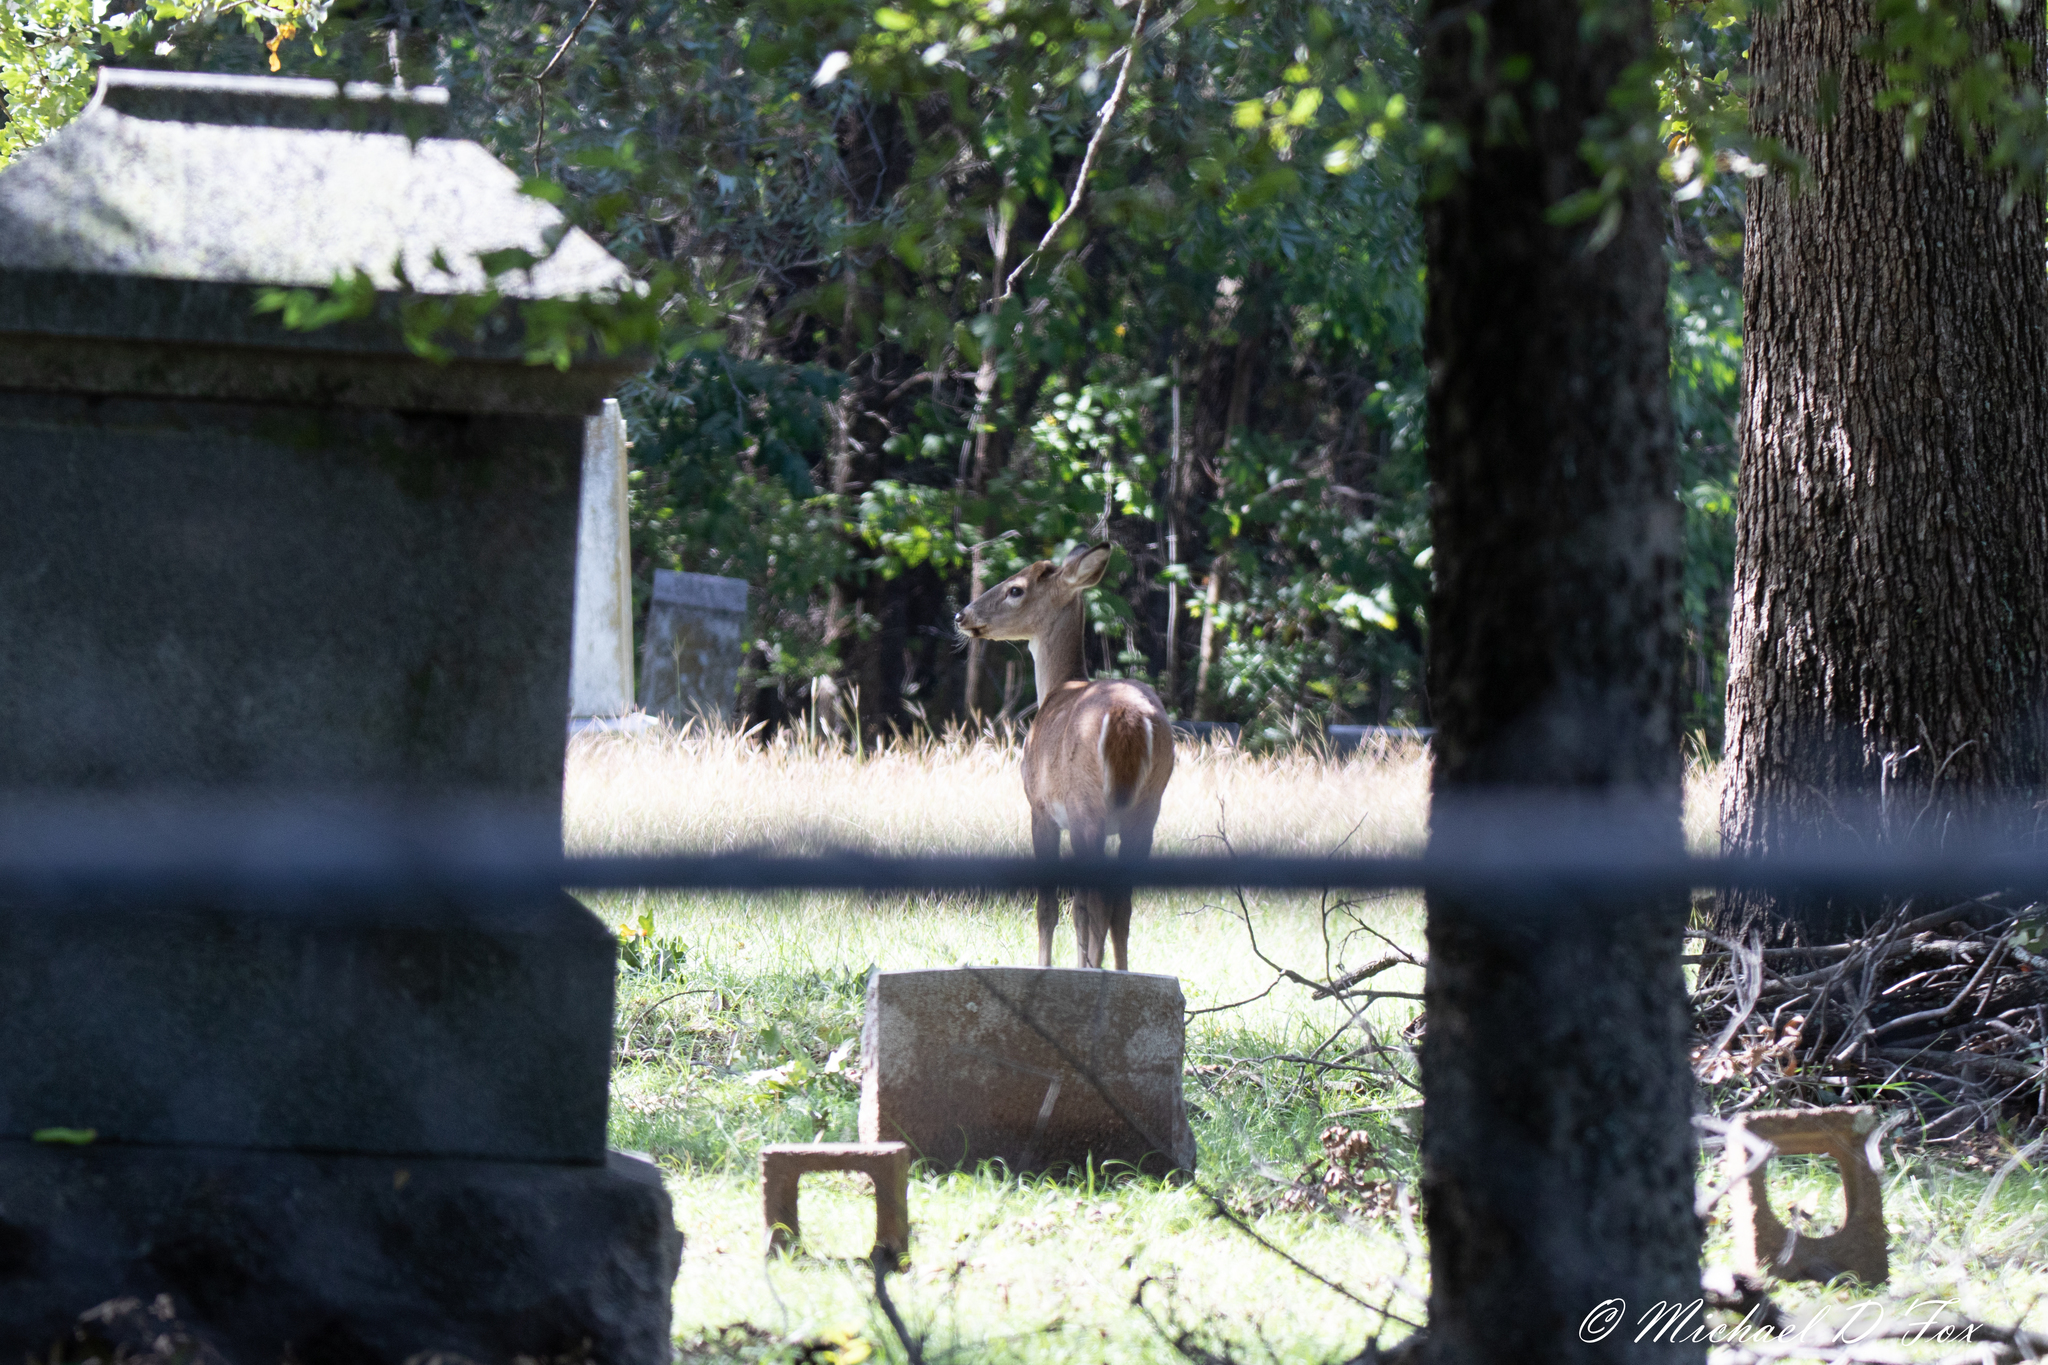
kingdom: Animalia
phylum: Chordata
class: Mammalia
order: Artiodactyla
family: Cervidae
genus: Odocoileus
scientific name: Odocoileus virginianus
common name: White-tailed deer
